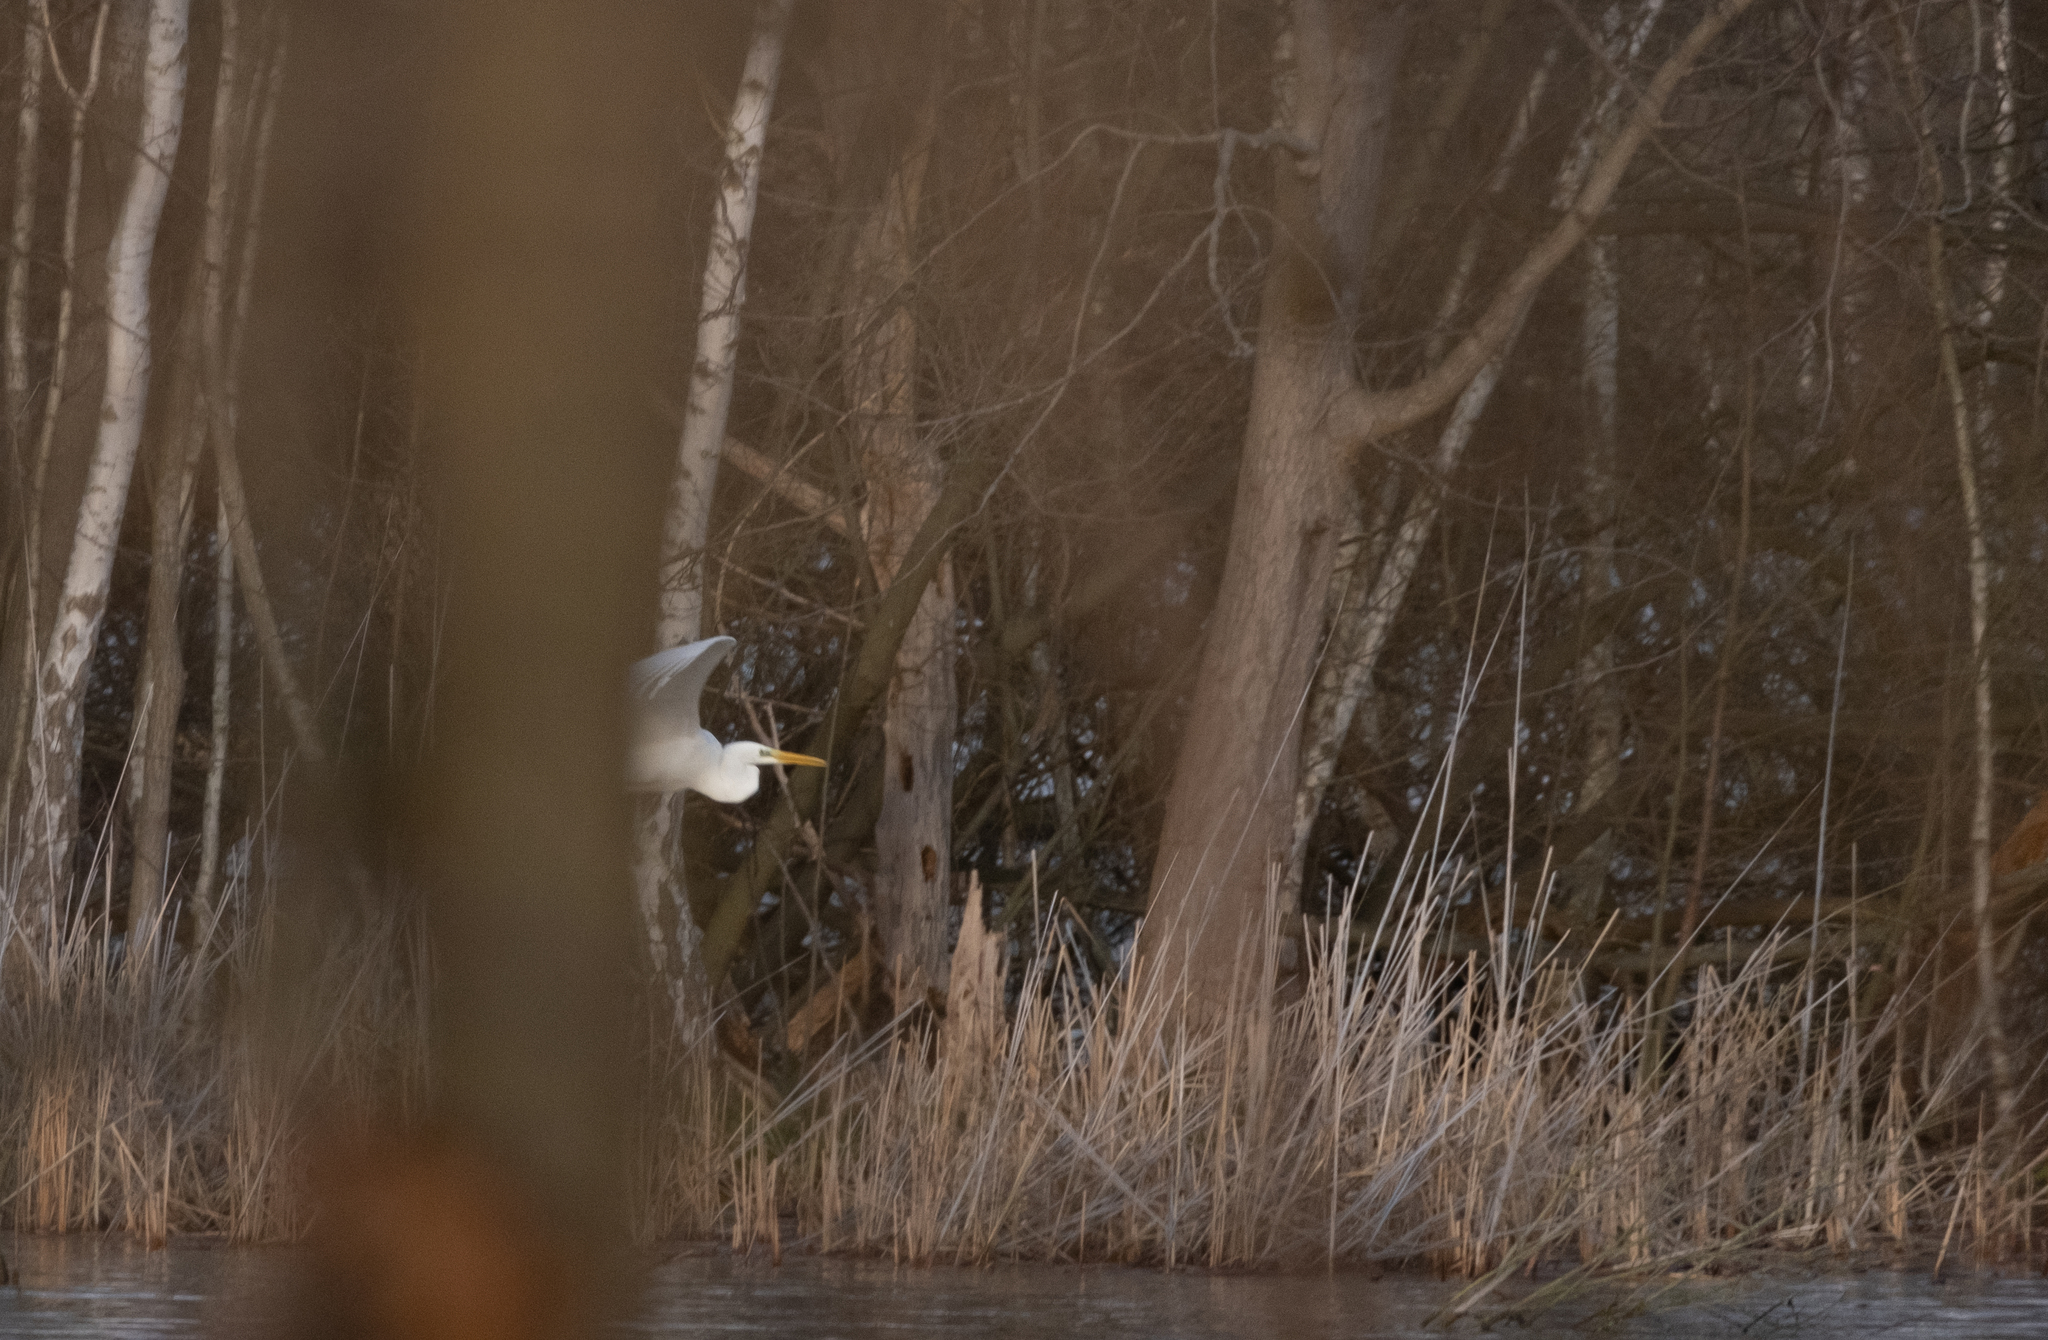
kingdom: Animalia
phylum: Chordata
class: Aves
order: Pelecaniformes
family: Ardeidae
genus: Ardea
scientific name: Ardea alba
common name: Great egret
